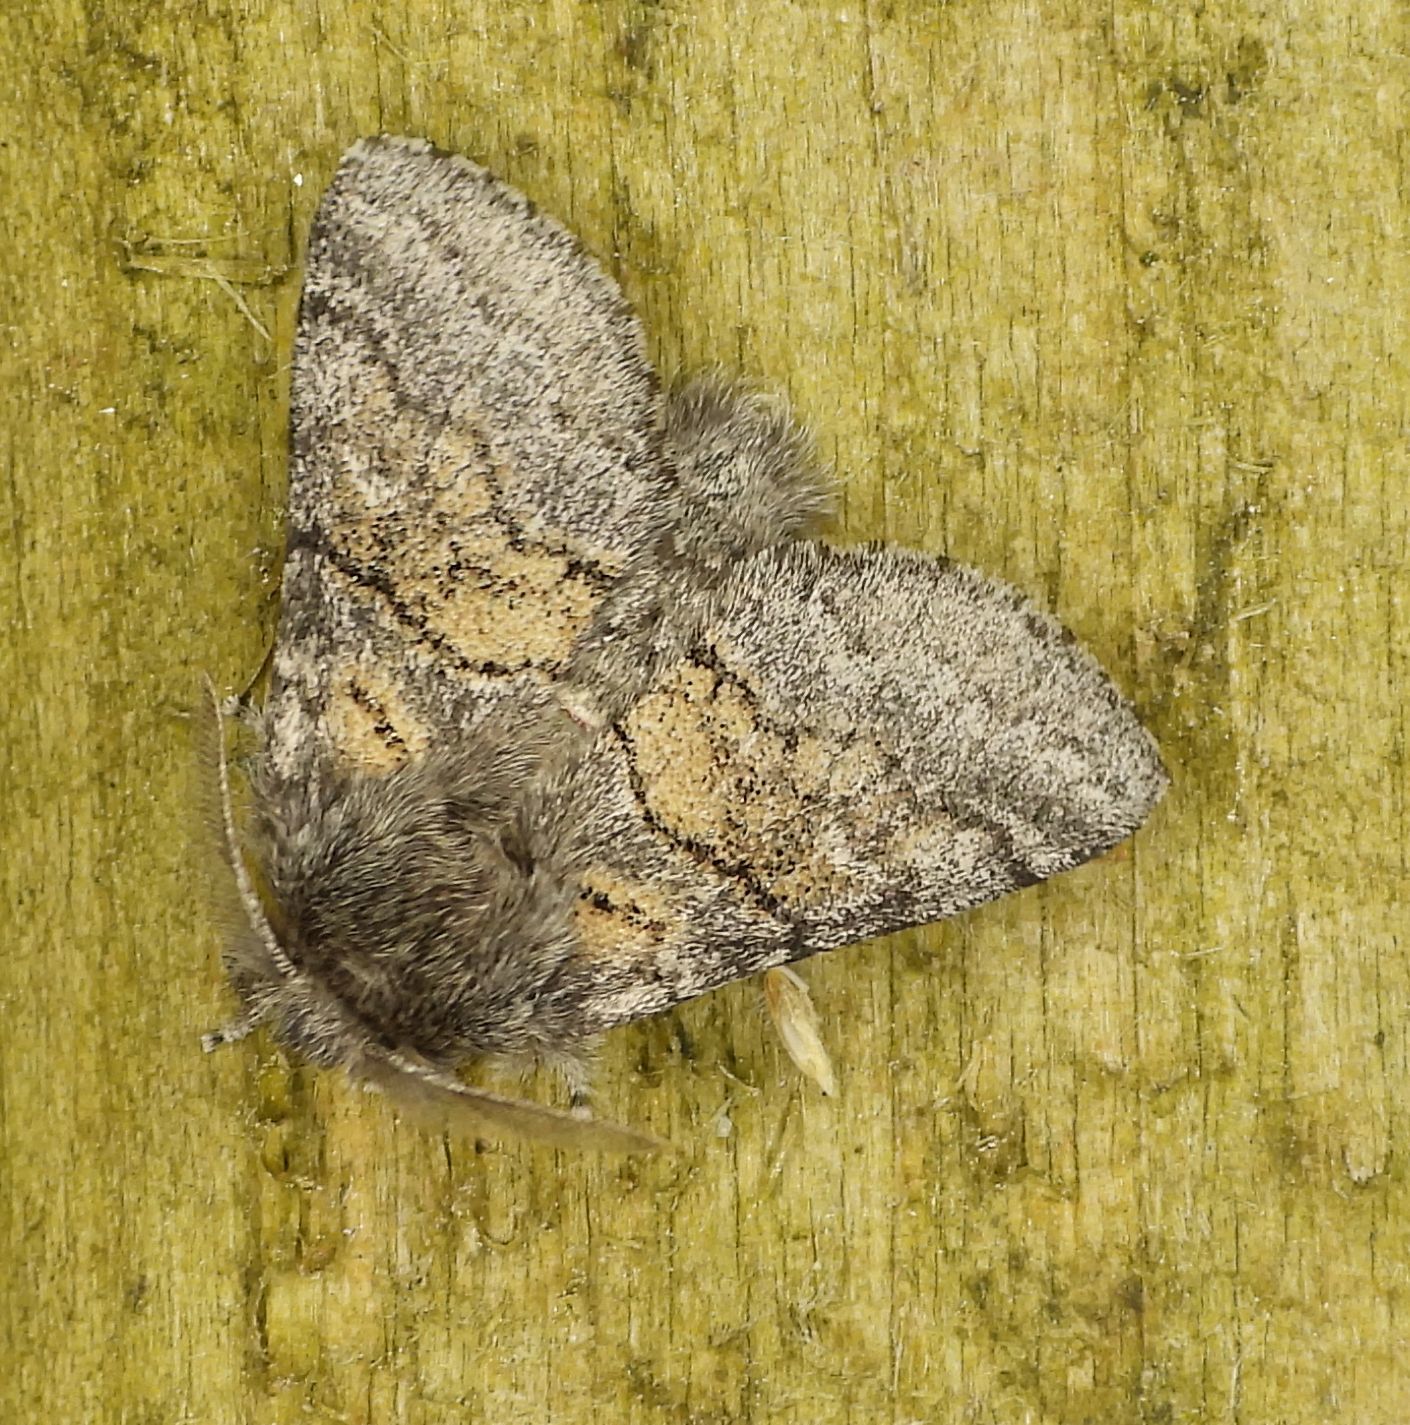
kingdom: Animalia
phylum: Arthropoda
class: Insecta
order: Lepidoptera
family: Notodontidae
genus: Gluphisia
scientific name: Gluphisia septentrionis
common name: Common gluphisia
